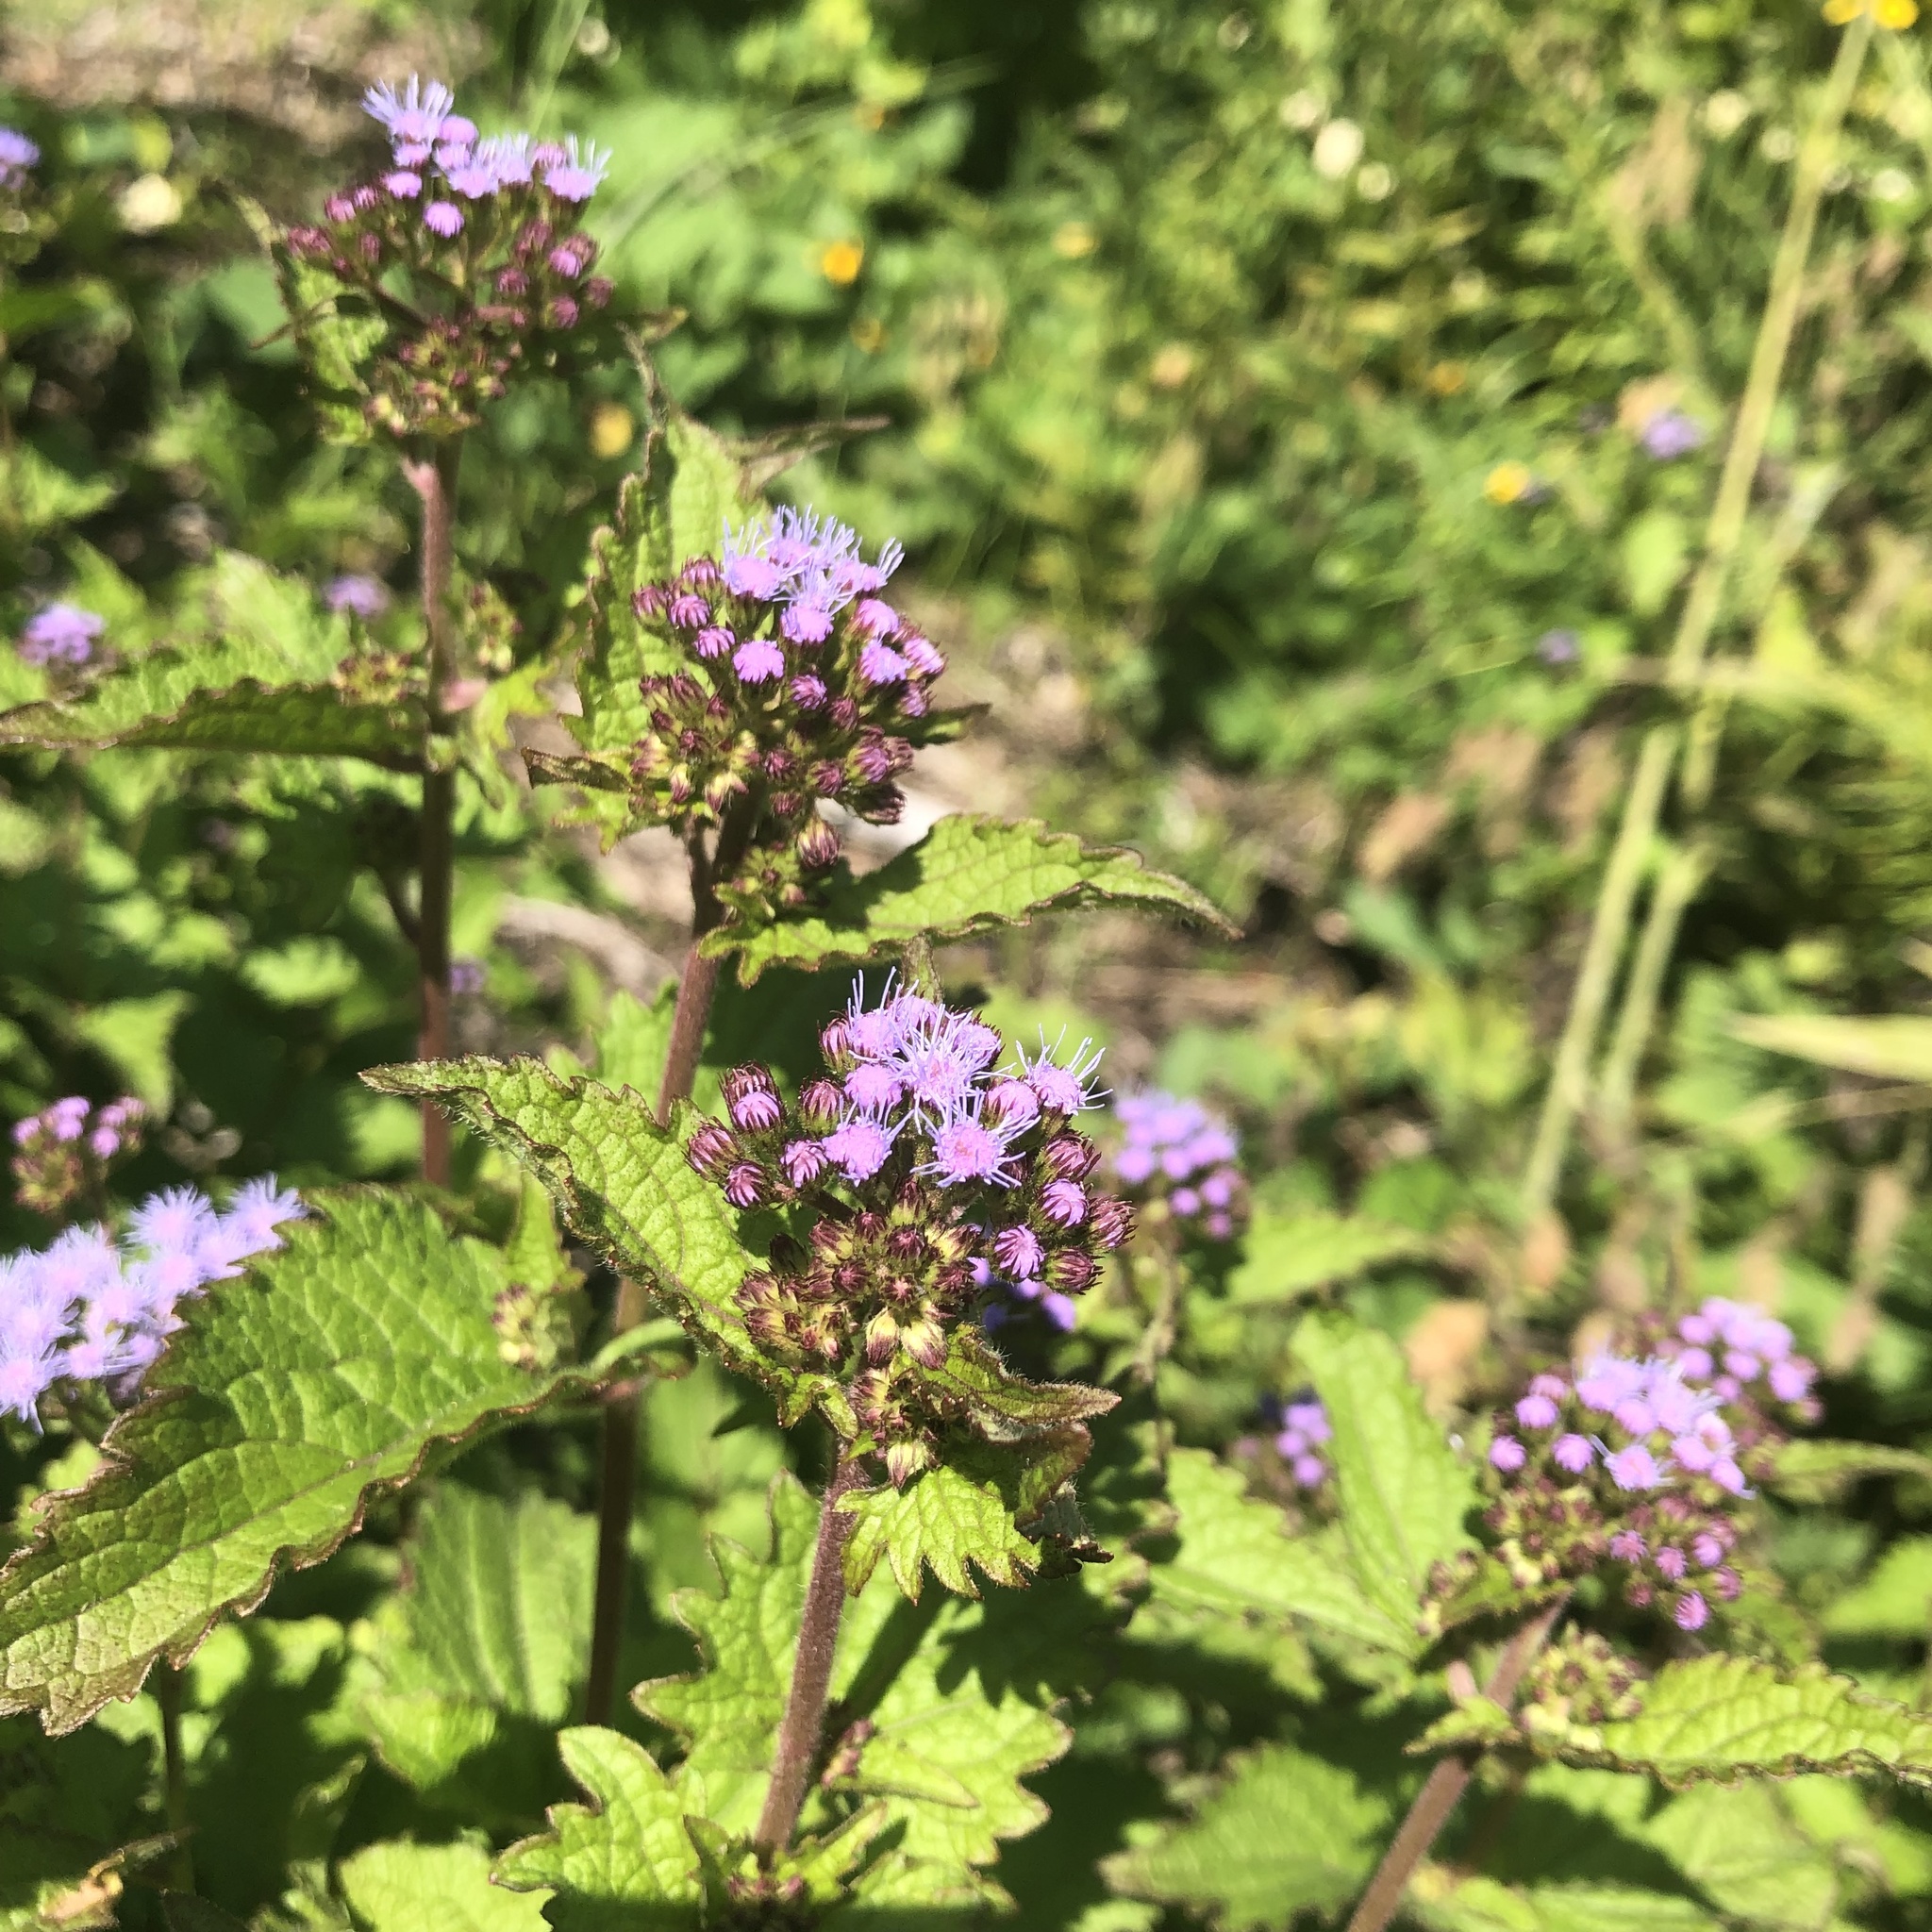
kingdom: Plantae
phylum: Tracheophyta
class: Magnoliopsida
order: Asterales
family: Asteraceae
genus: Conoclinium
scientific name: Conoclinium coelestinum
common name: Blue mistflower
